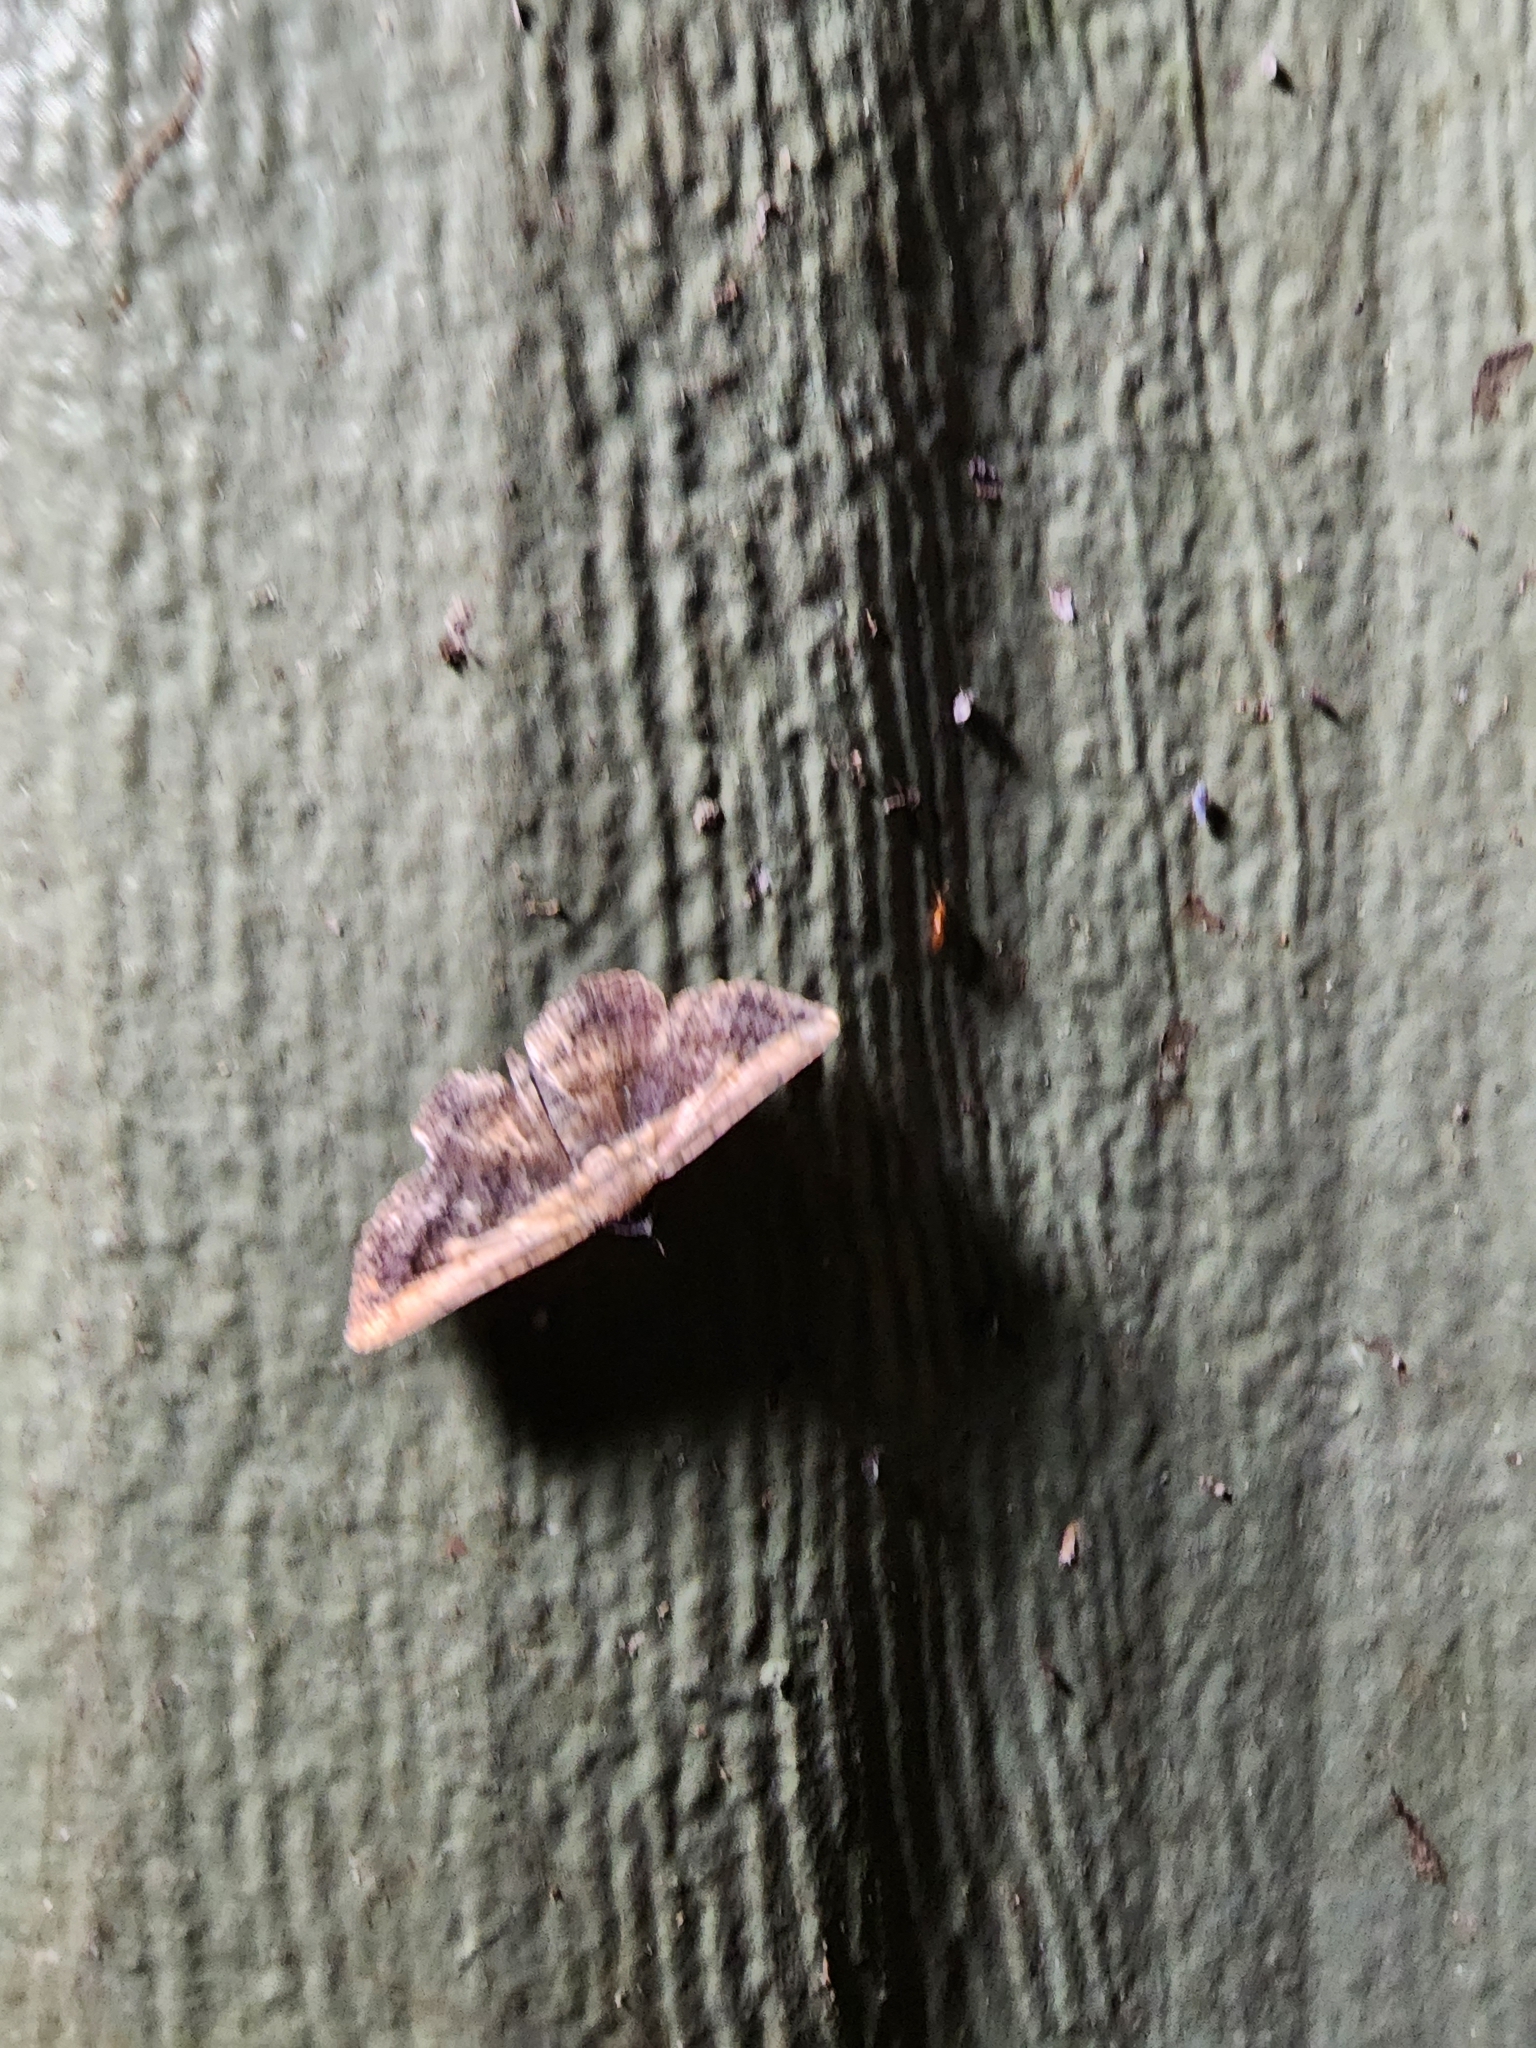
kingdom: Animalia
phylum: Arthropoda
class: Insecta
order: Lepidoptera
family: Erebidae
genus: Selenisa
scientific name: Selenisa sueroides
